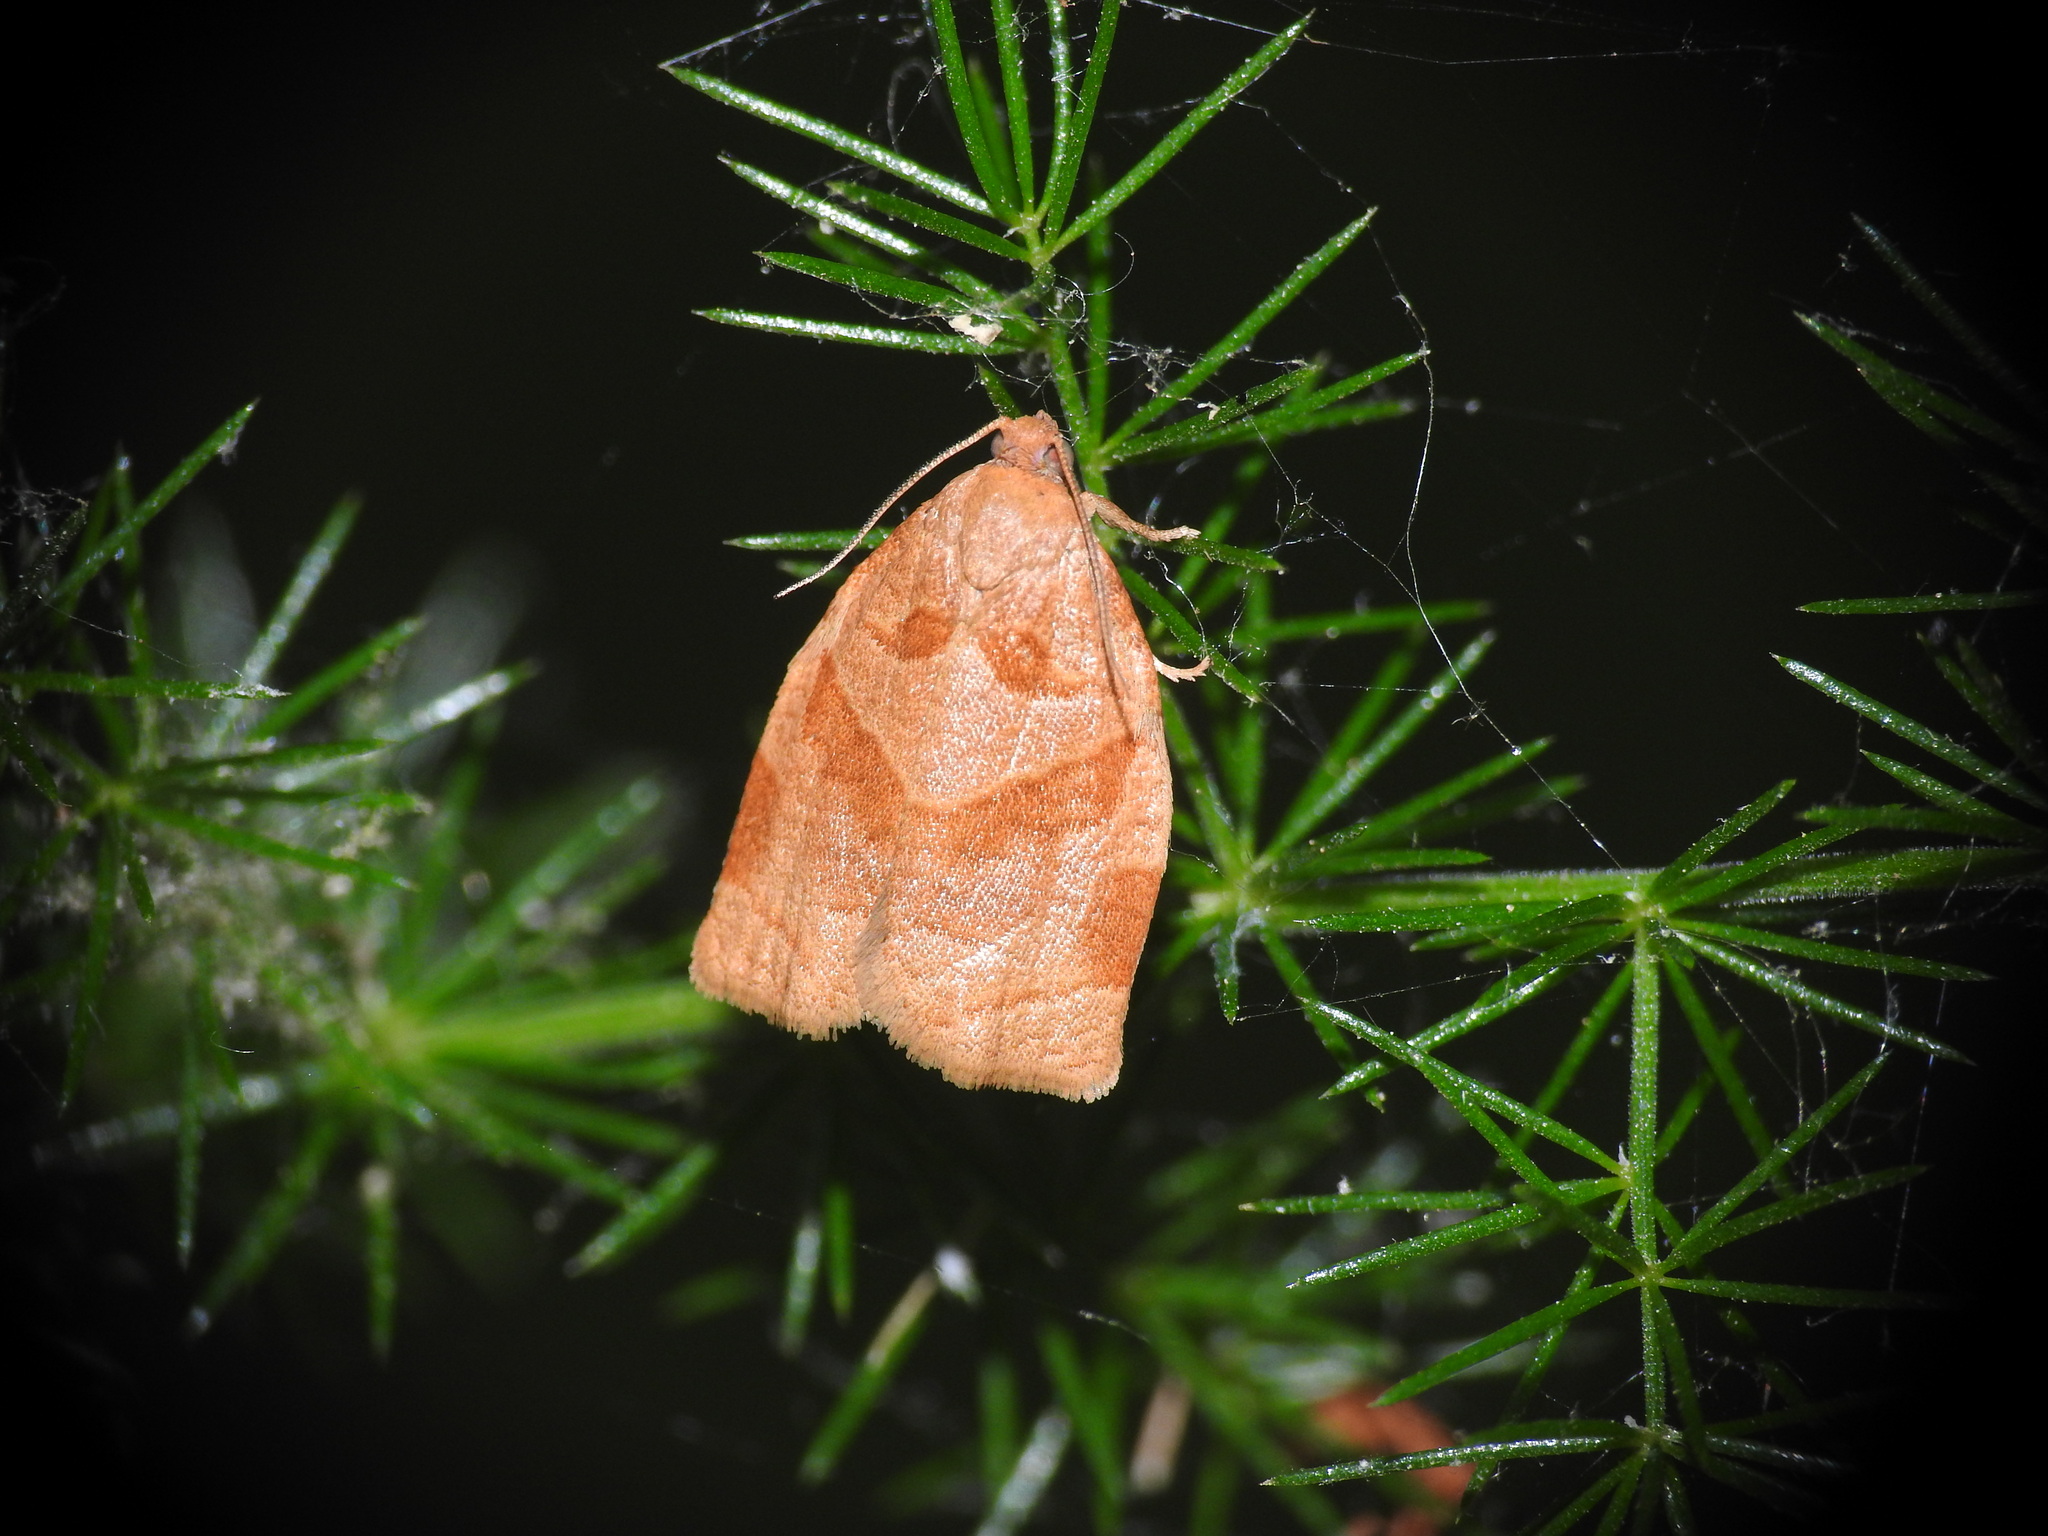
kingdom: Animalia
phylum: Arthropoda
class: Insecta
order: Lepidoptera
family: Tortricidae
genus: Archips
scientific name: Archips rosana
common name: Rose tortrix
